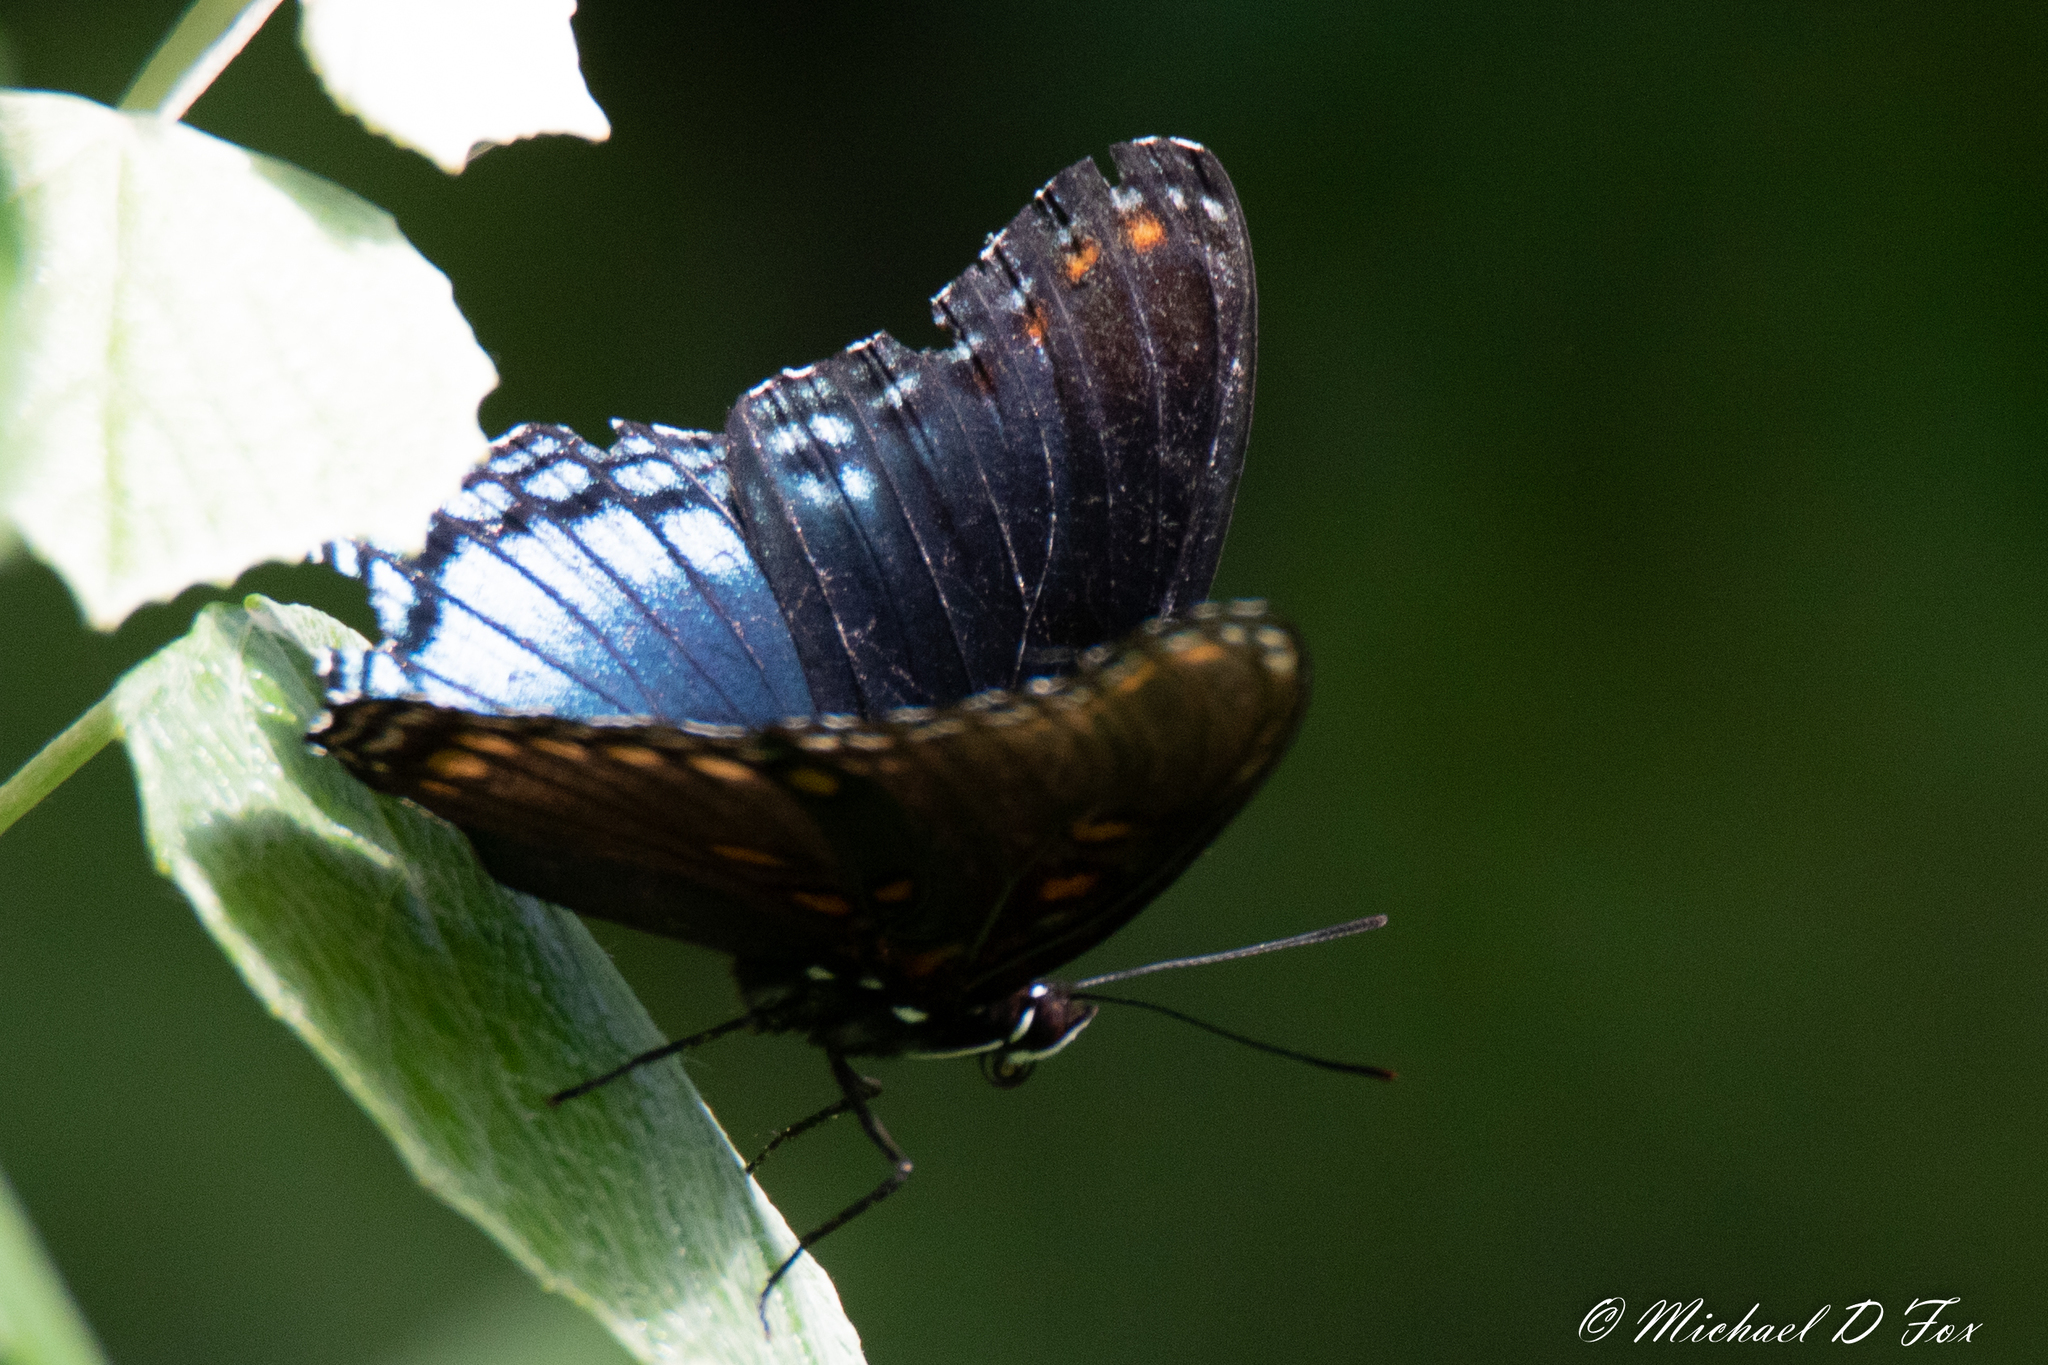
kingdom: Animalia
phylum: Arthropoda
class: Insecta
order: Lepidoptera
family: Nymphalidae
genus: Limenitis
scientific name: Limenitis astyanax
